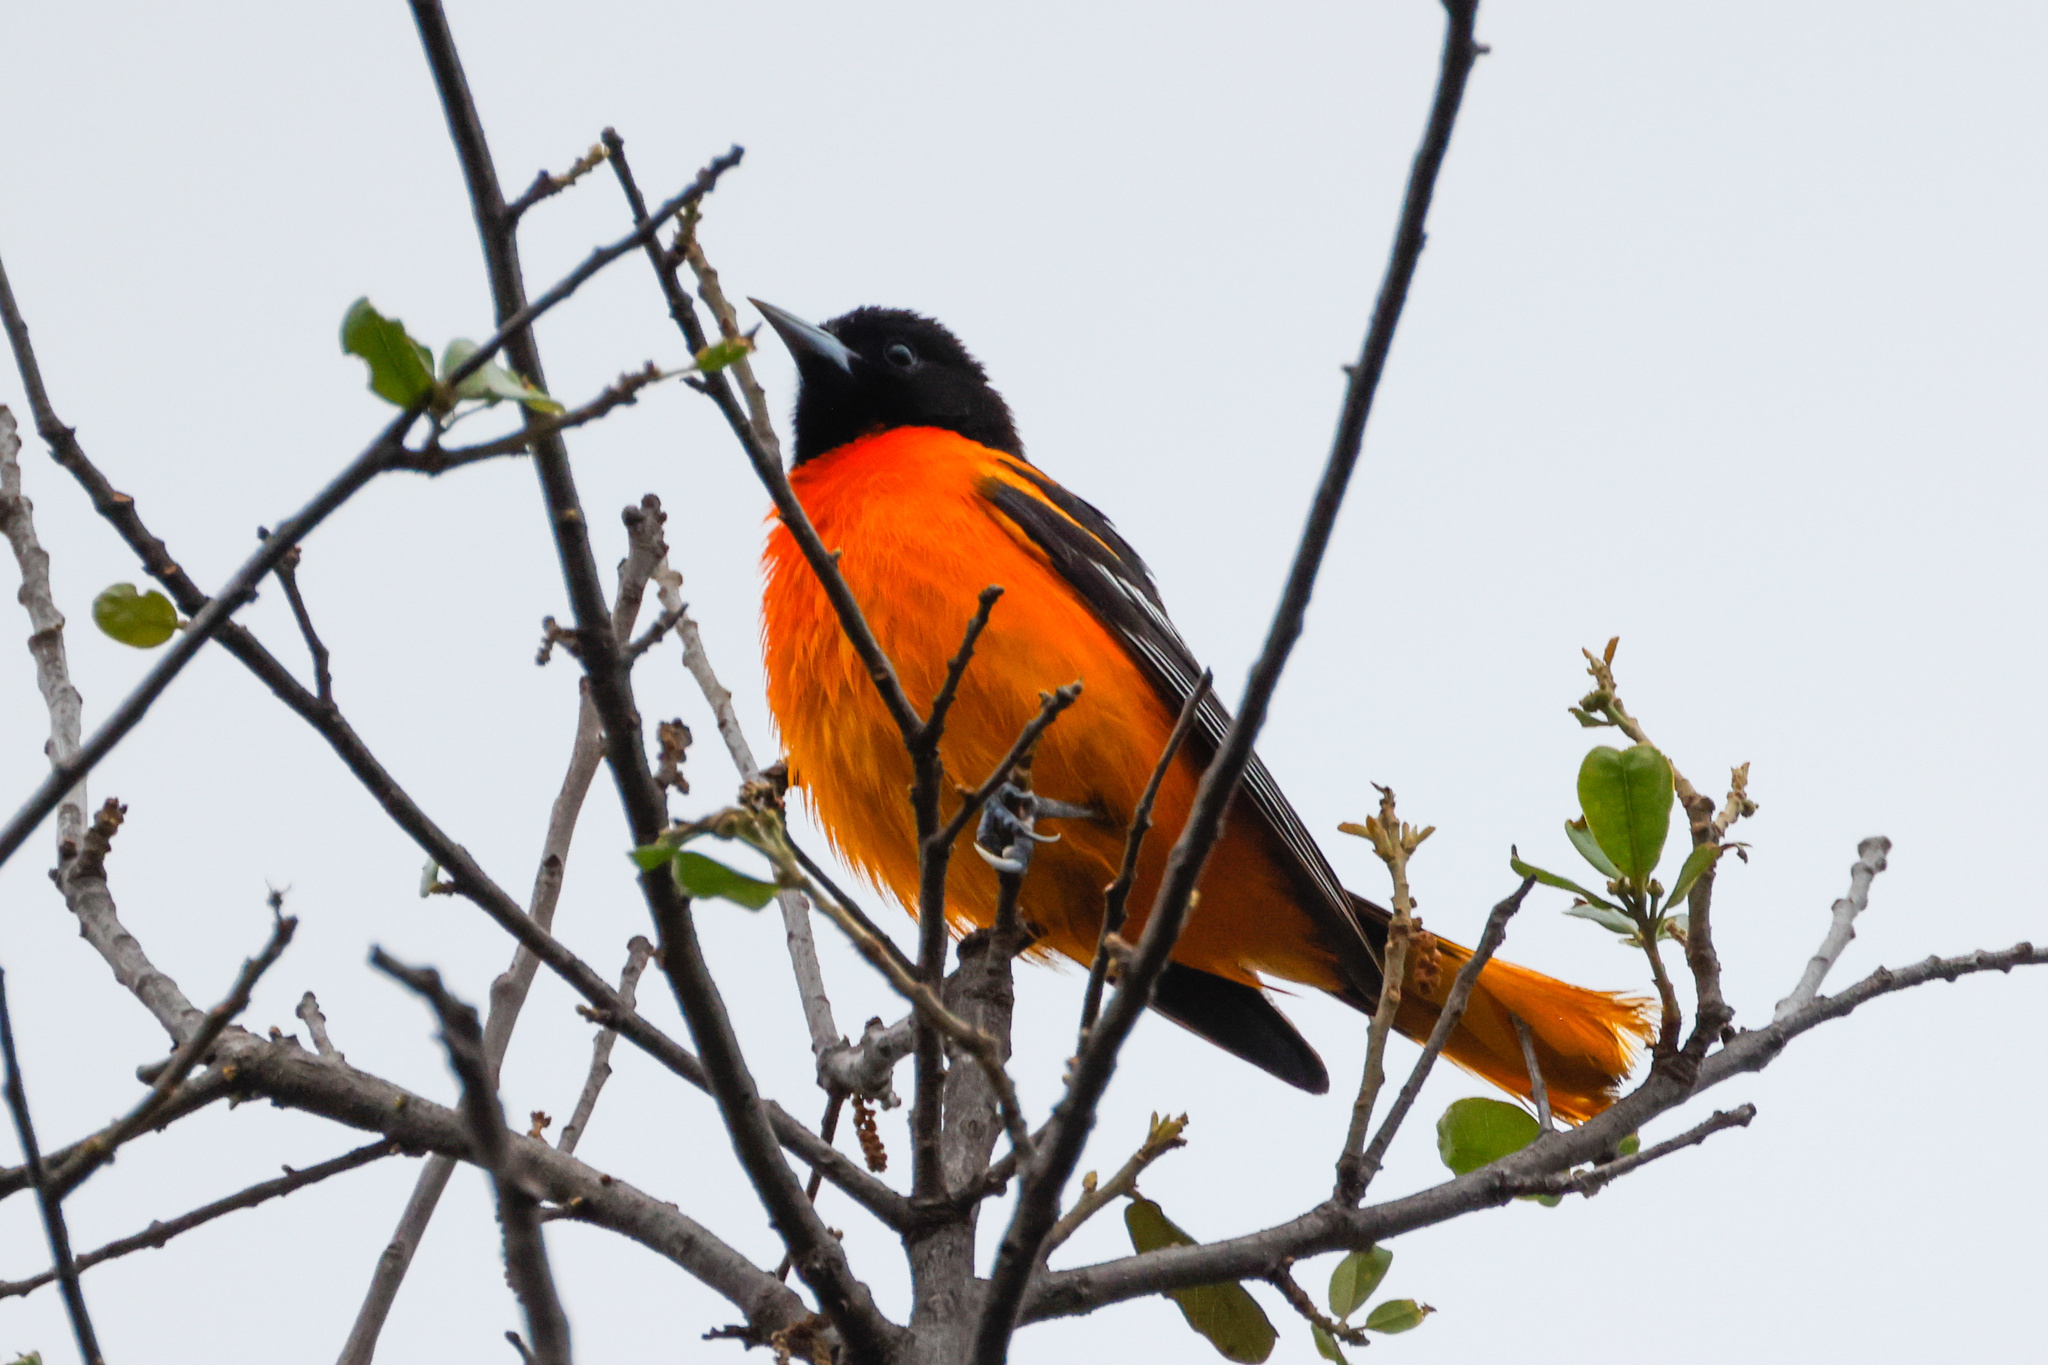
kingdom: Animalia
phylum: Chordata
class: Aves
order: Passeriformes
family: Icteridae
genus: Icterus
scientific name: Icterus galbula
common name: Baltimore oriole
